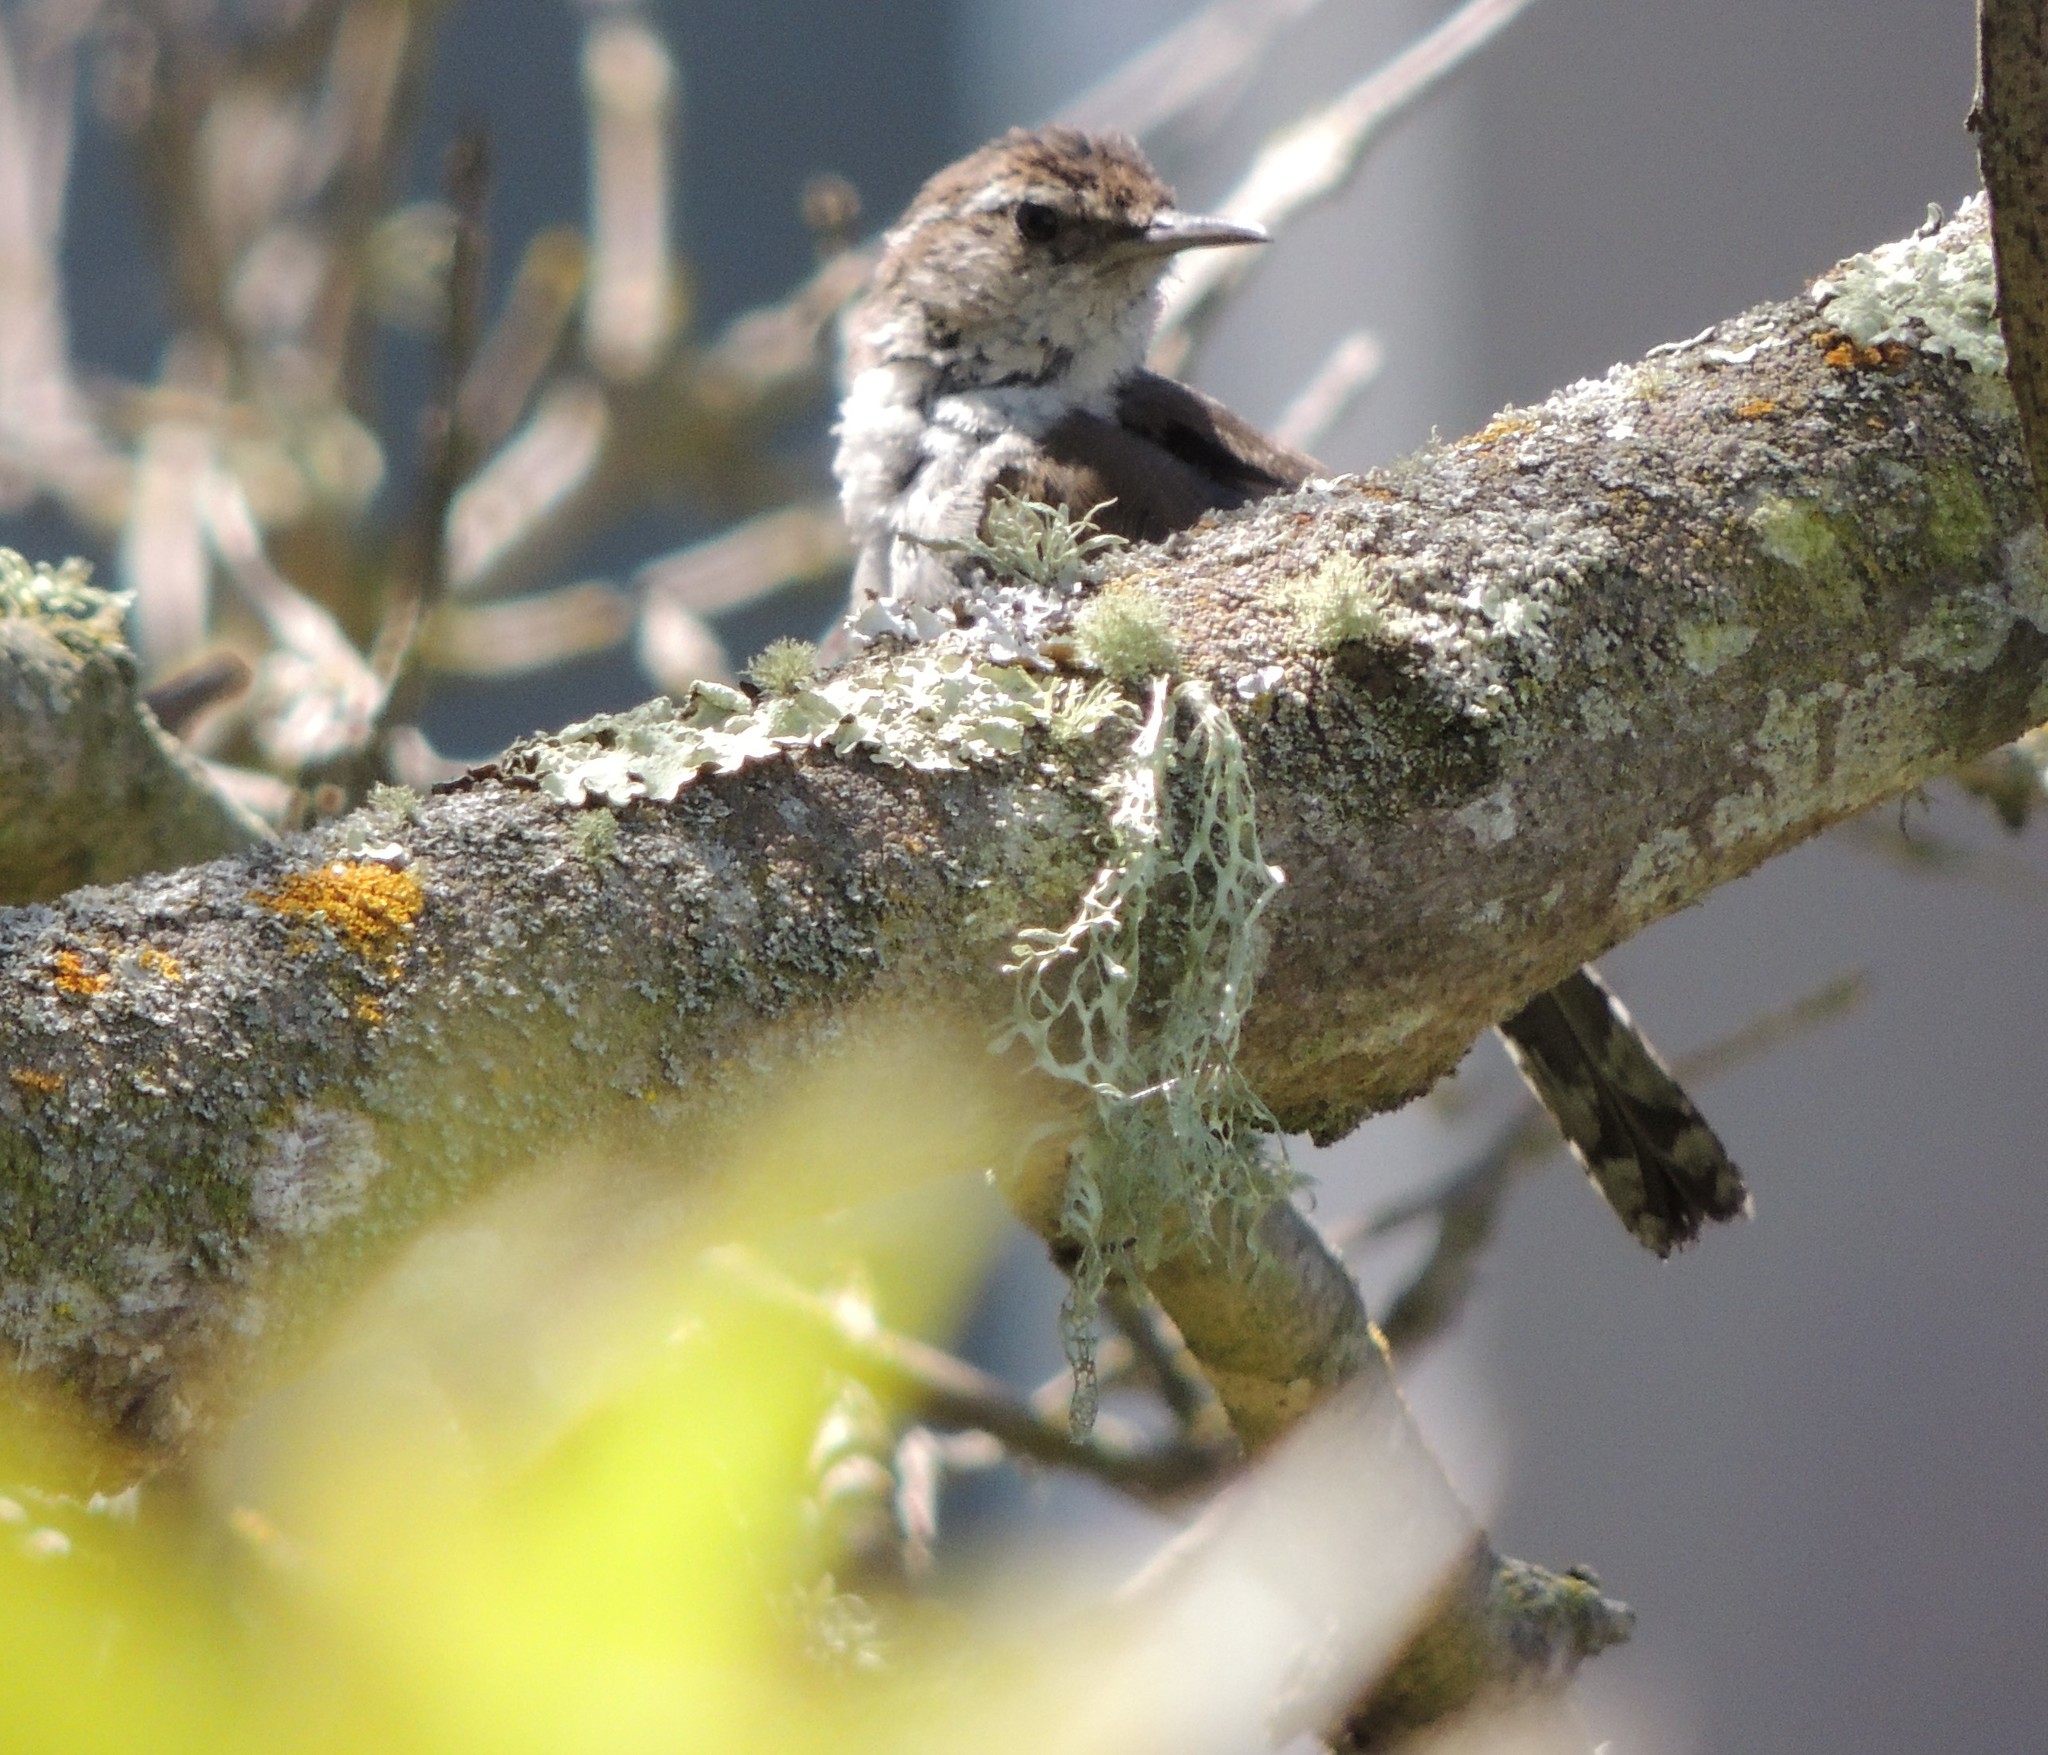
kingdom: Animalia
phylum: Chordata
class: Aves
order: Passeriformes
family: Troglodytidae
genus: Thryomanes
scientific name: Thryomanes bewickii
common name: Bewick's wren
